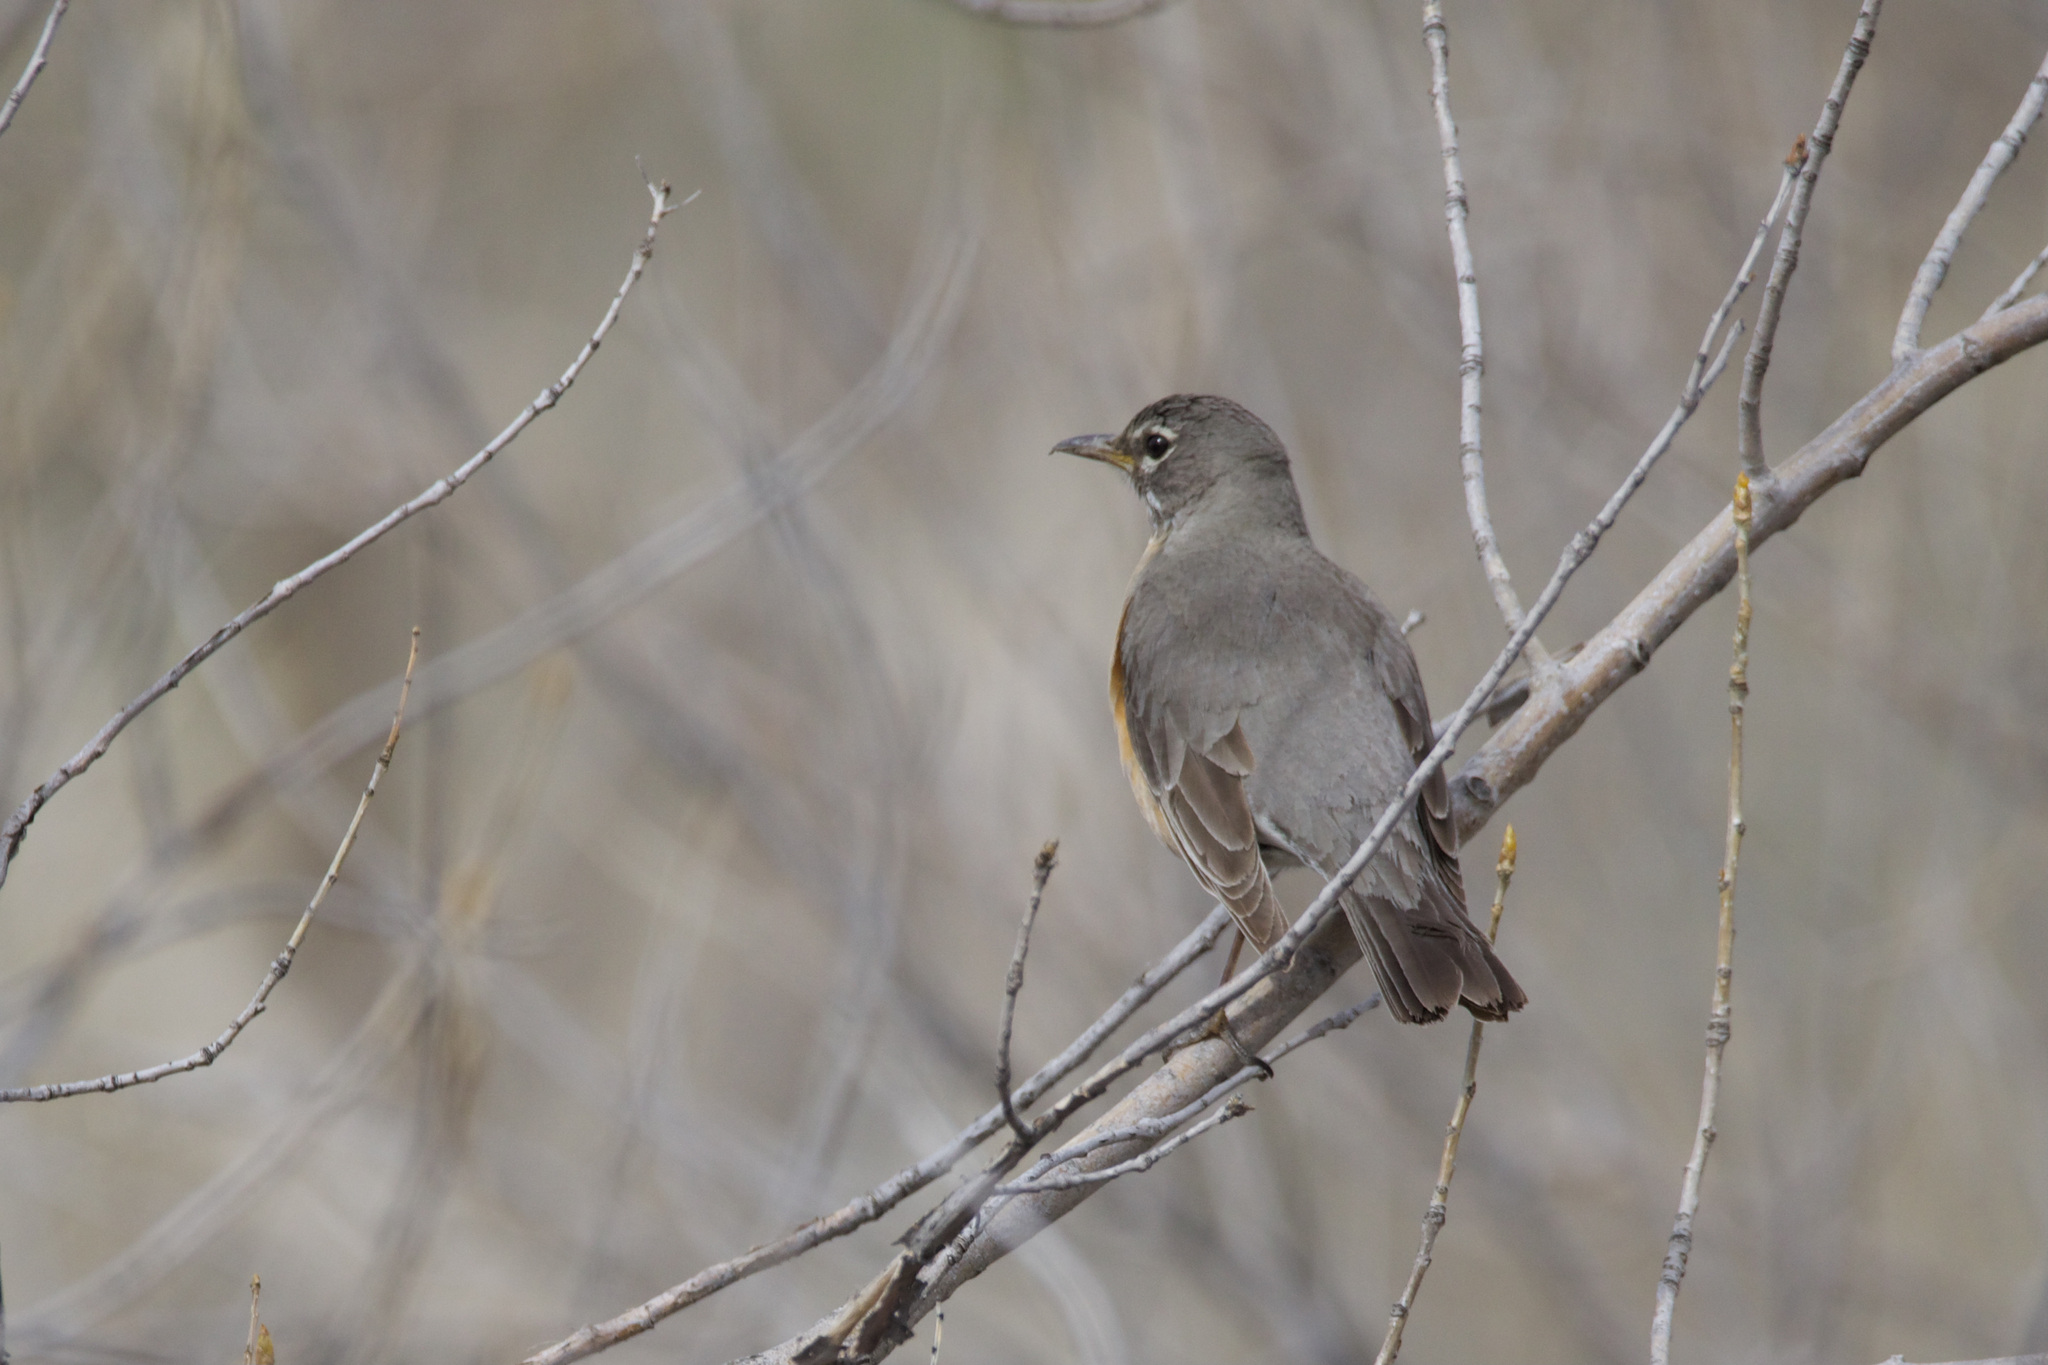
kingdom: Animalia
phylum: Chordata
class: Aves
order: Passeriformes
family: Turdidae
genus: Turdus
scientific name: Turdus migratorius
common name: American robin
